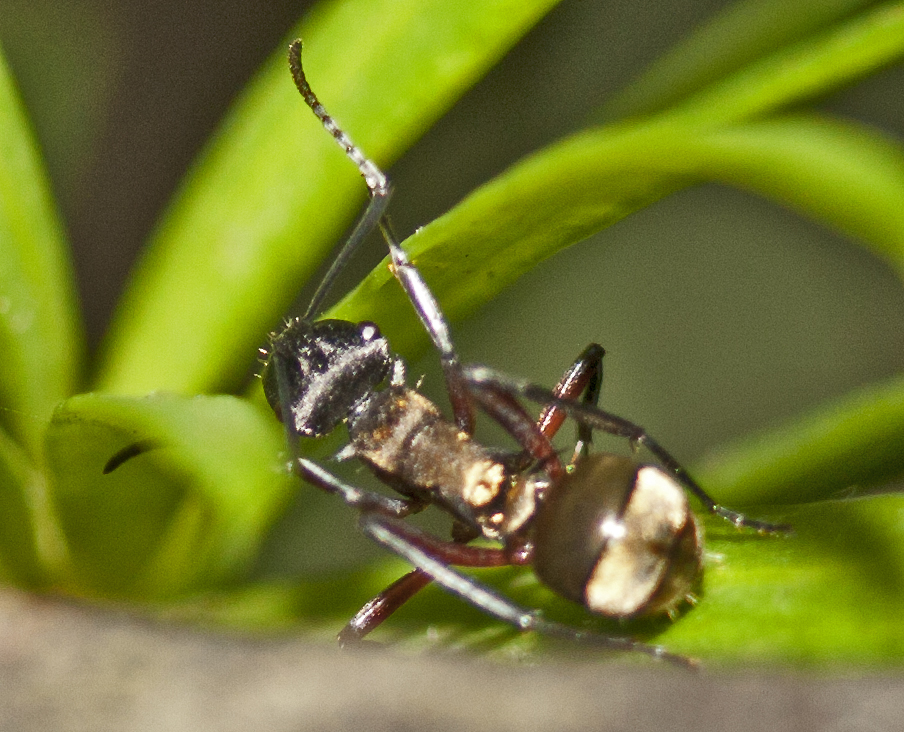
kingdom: Animalia
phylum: Arthropoda
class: Insecta
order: Hymenoptera
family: Formicidae
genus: Polyrhachis
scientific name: Polyrhachis rufifemur
